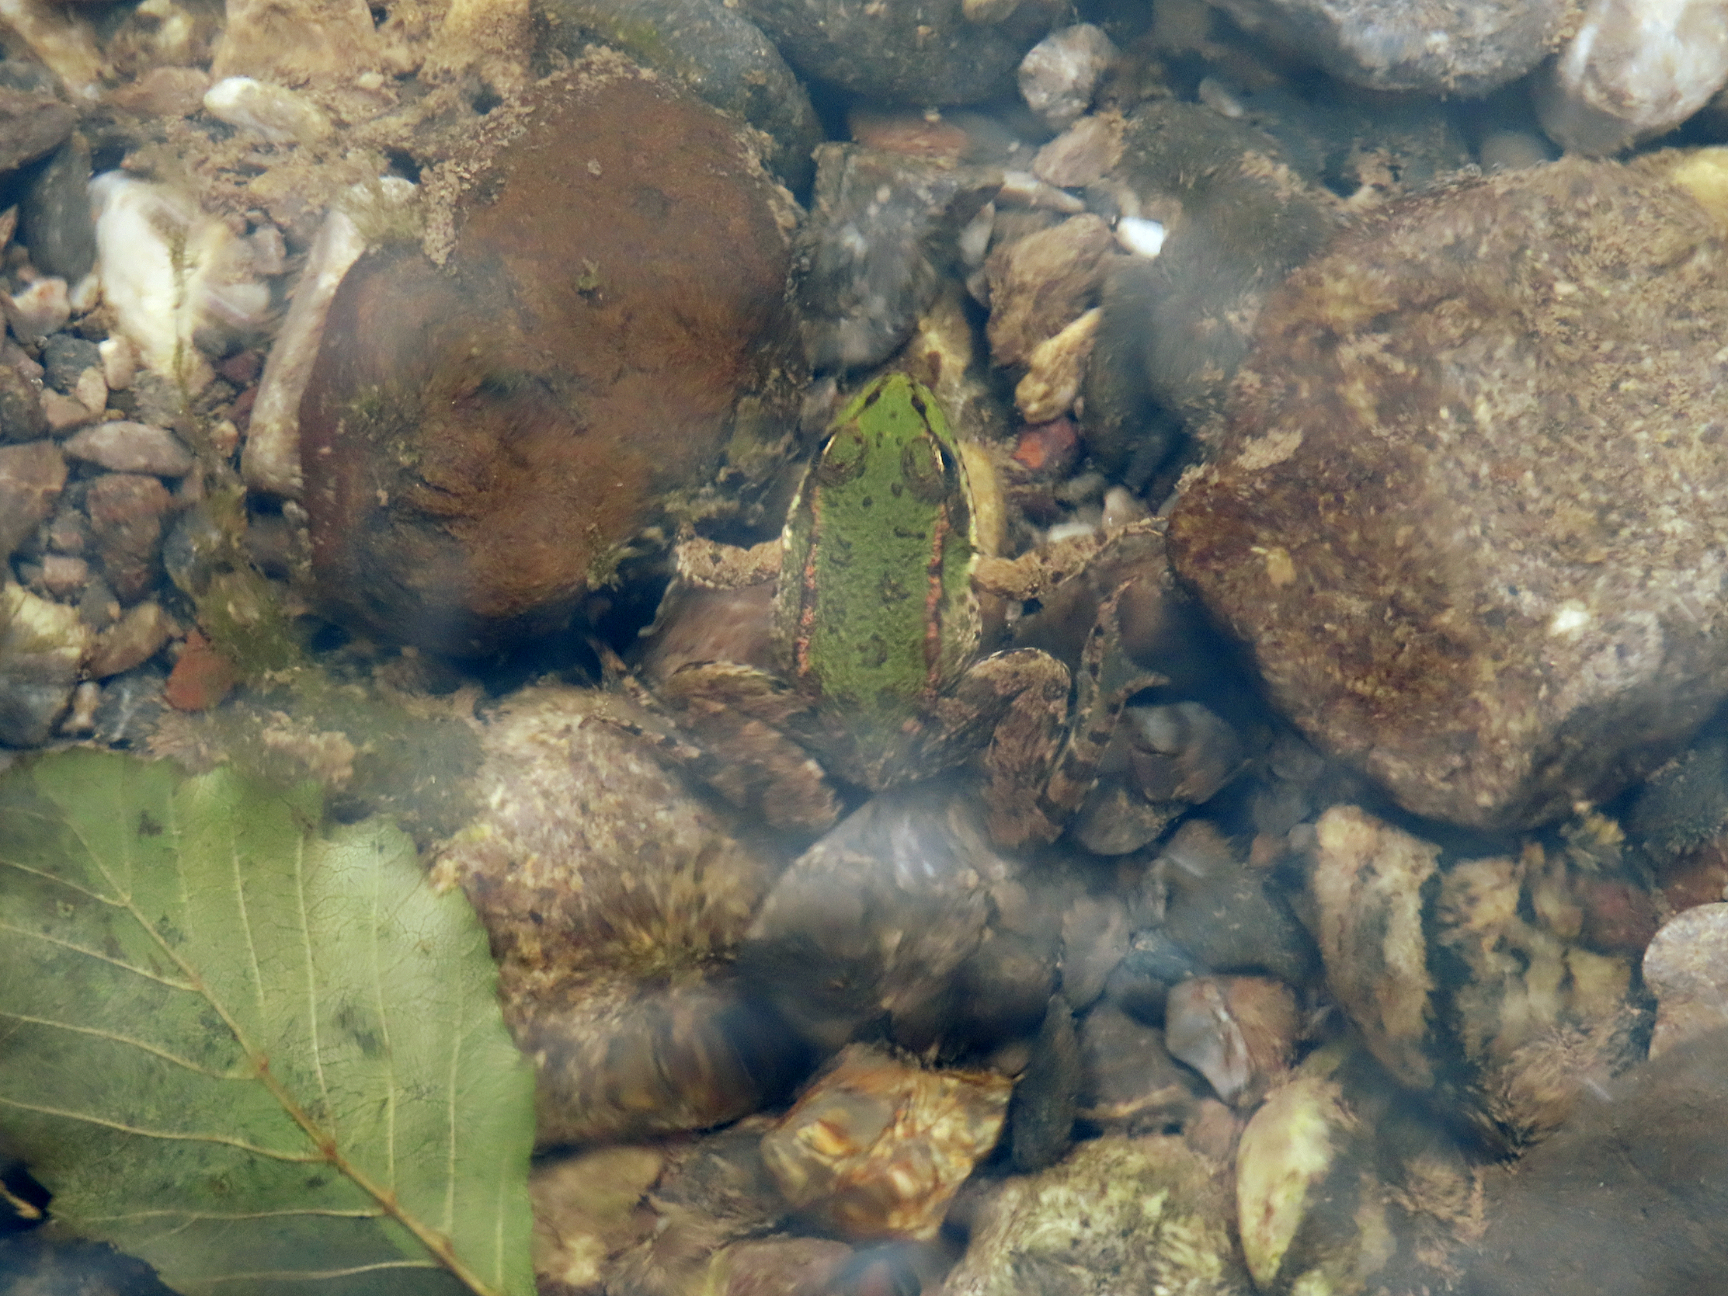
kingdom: Animalia
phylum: Chordata
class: Amphibia
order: Anura
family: Ranidae
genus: Pelophylax
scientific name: Pelophylax ridibundus
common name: Marsh frog
